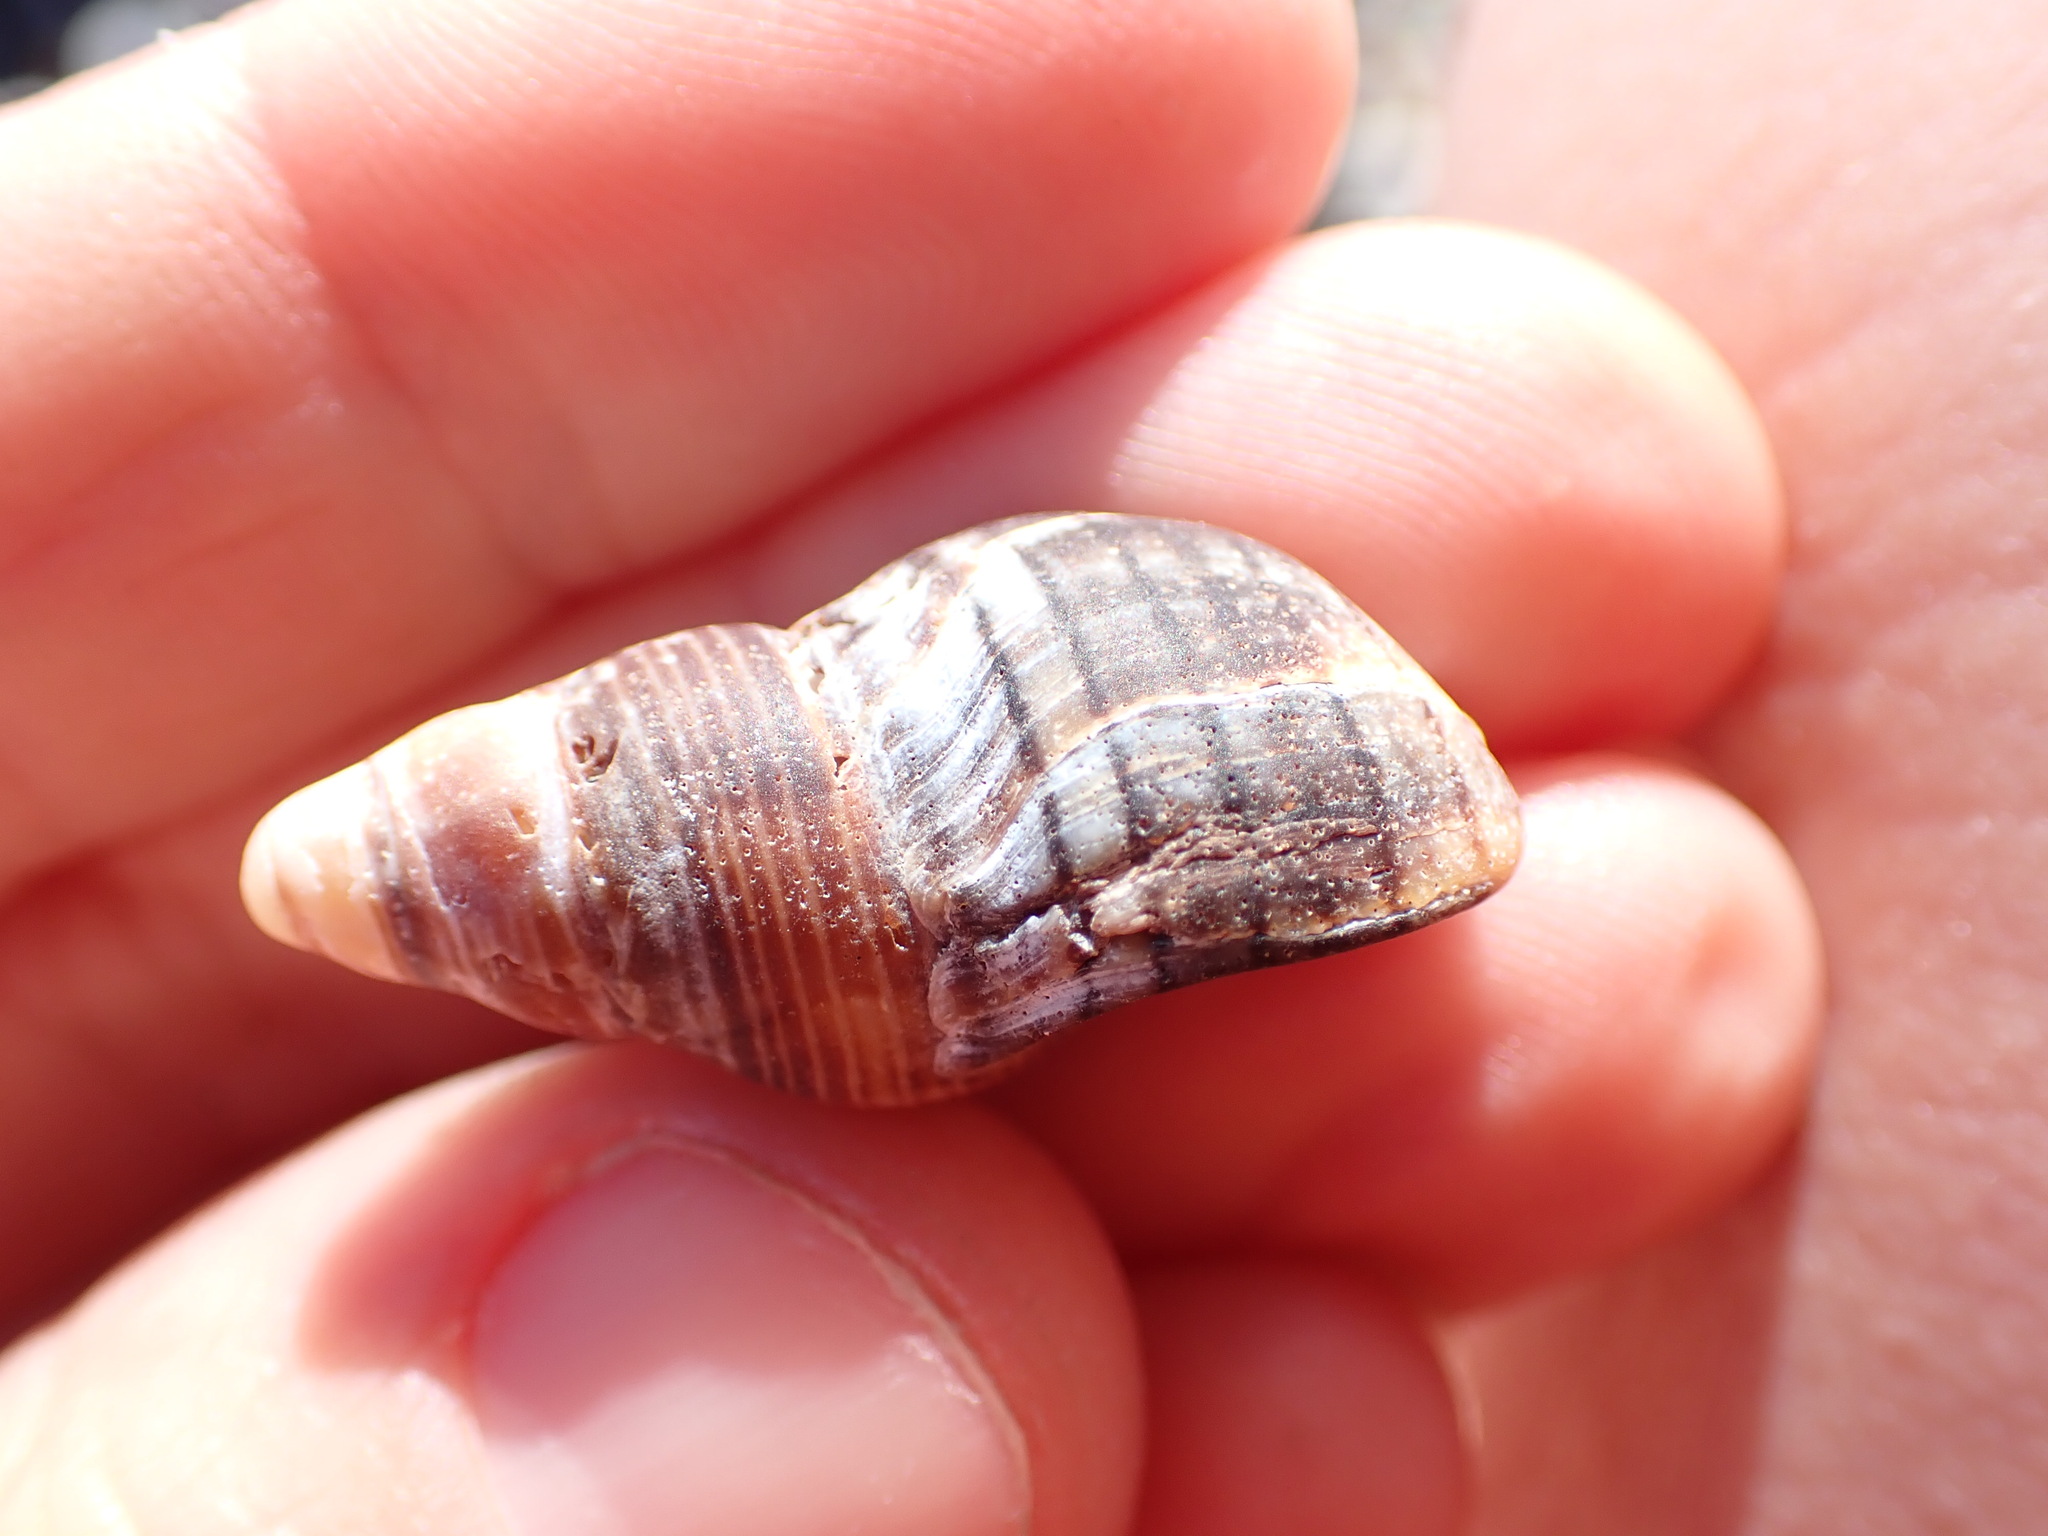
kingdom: Animalia
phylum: Mollusca
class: Gastropoda
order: Neogastropoda
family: Cominellidae
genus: Cominella
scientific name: Cominella virgata
